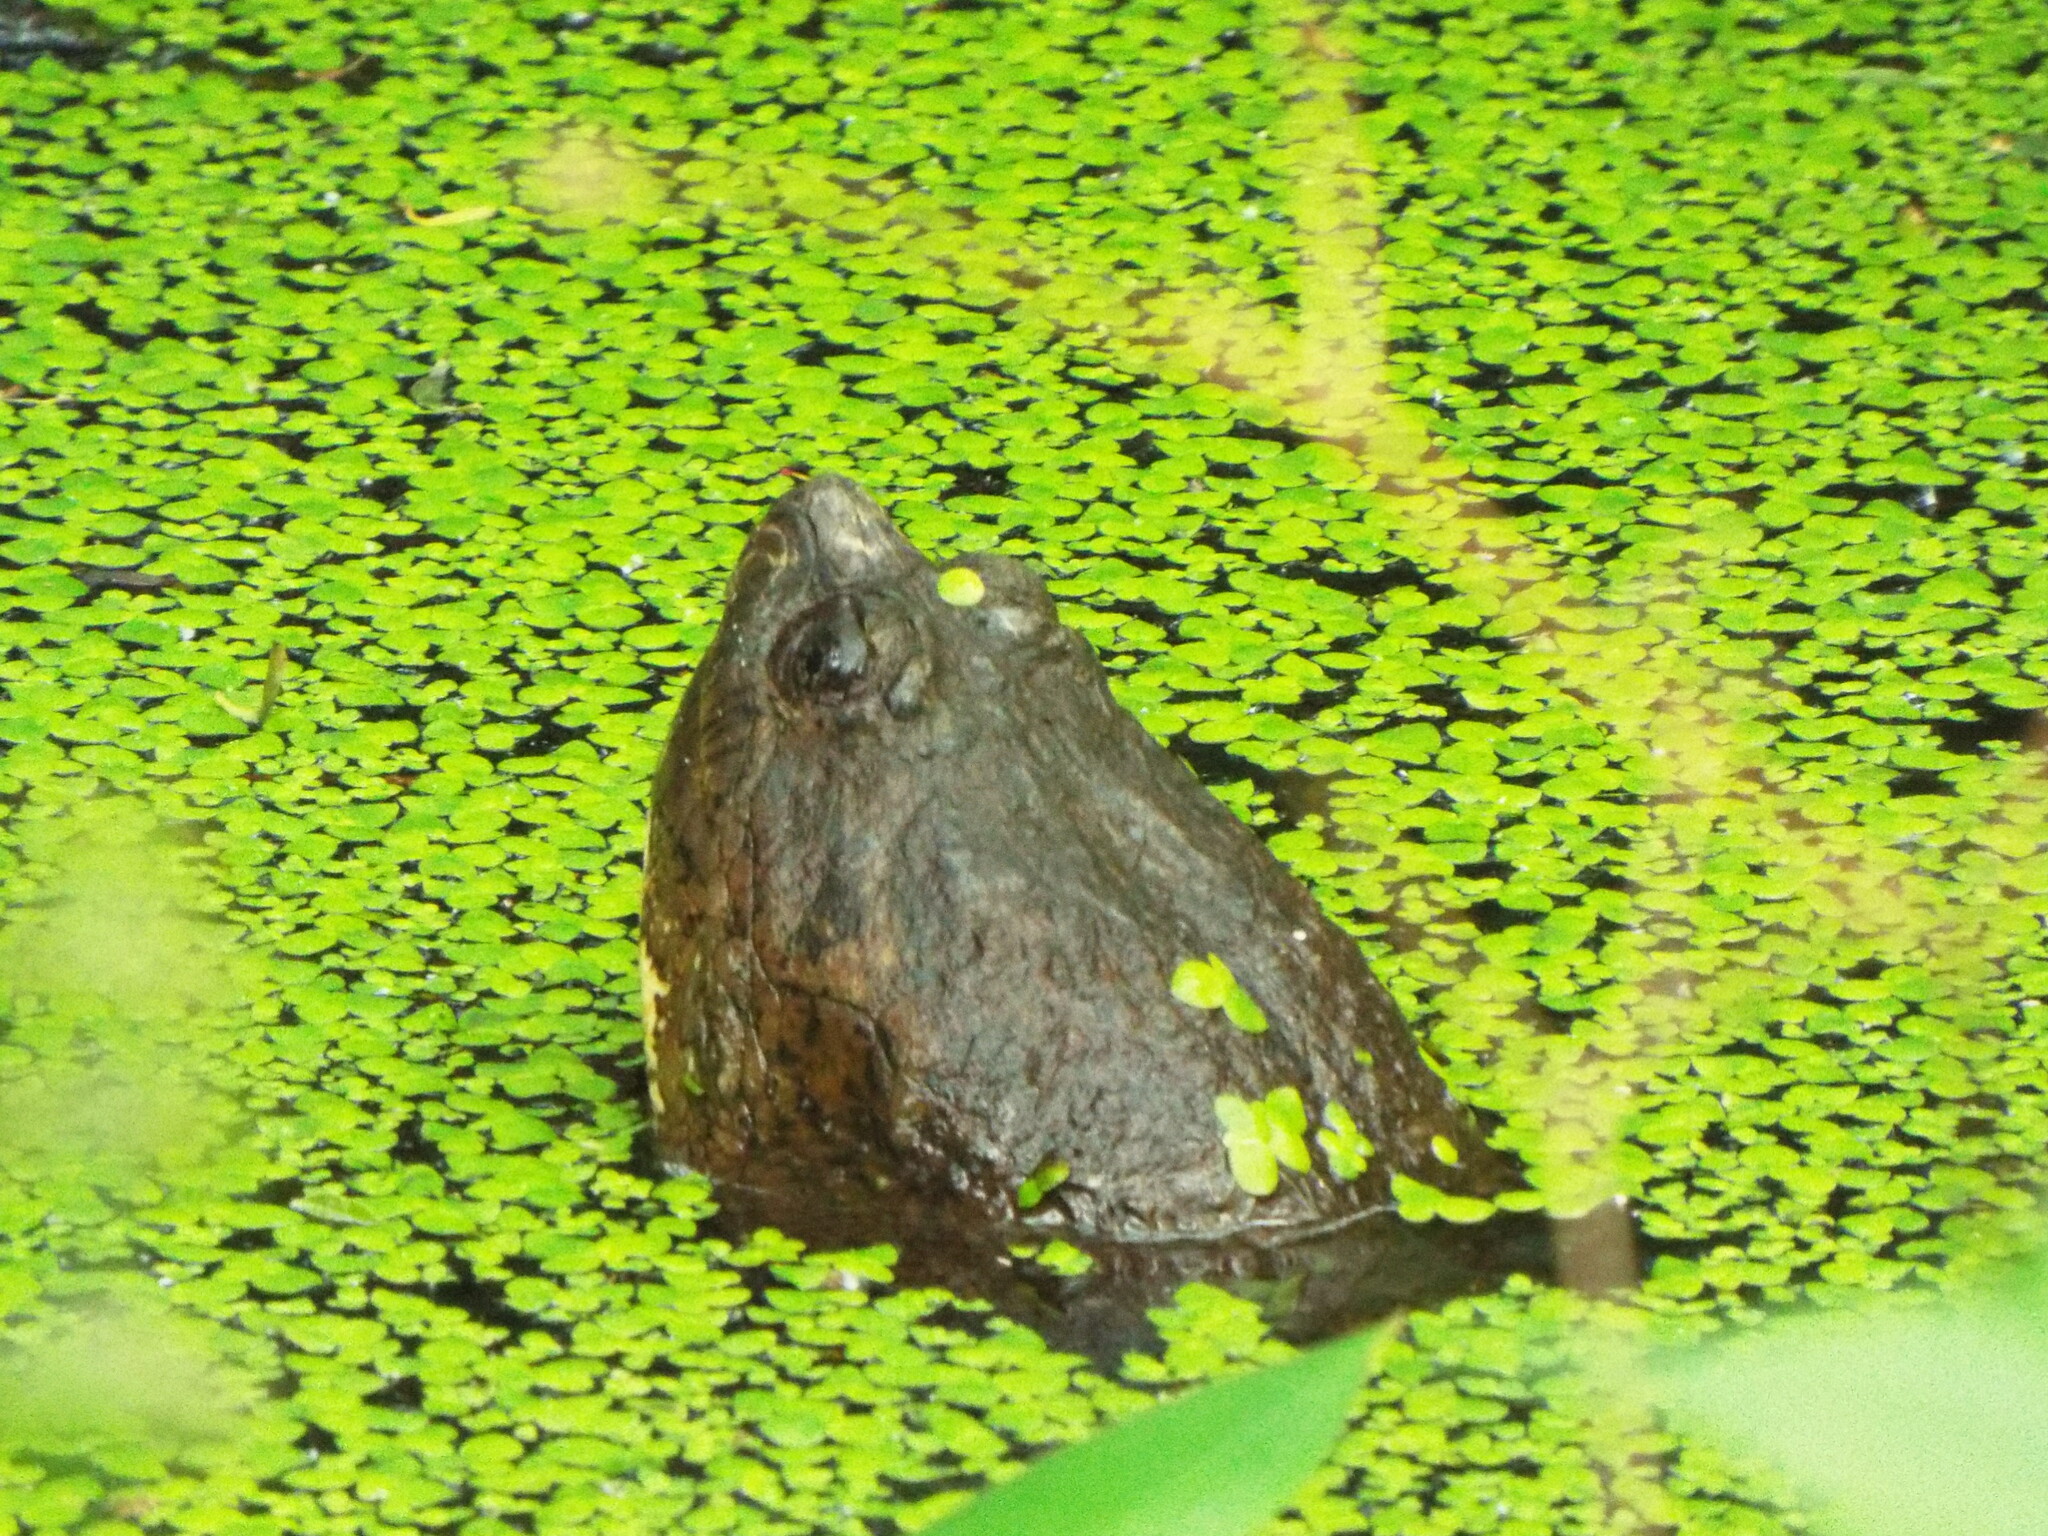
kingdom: Animalia
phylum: Chordata
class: Testudines
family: Chelydridae
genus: Chelydra
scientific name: Chelydra serpentina
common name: Common snapping turtle
